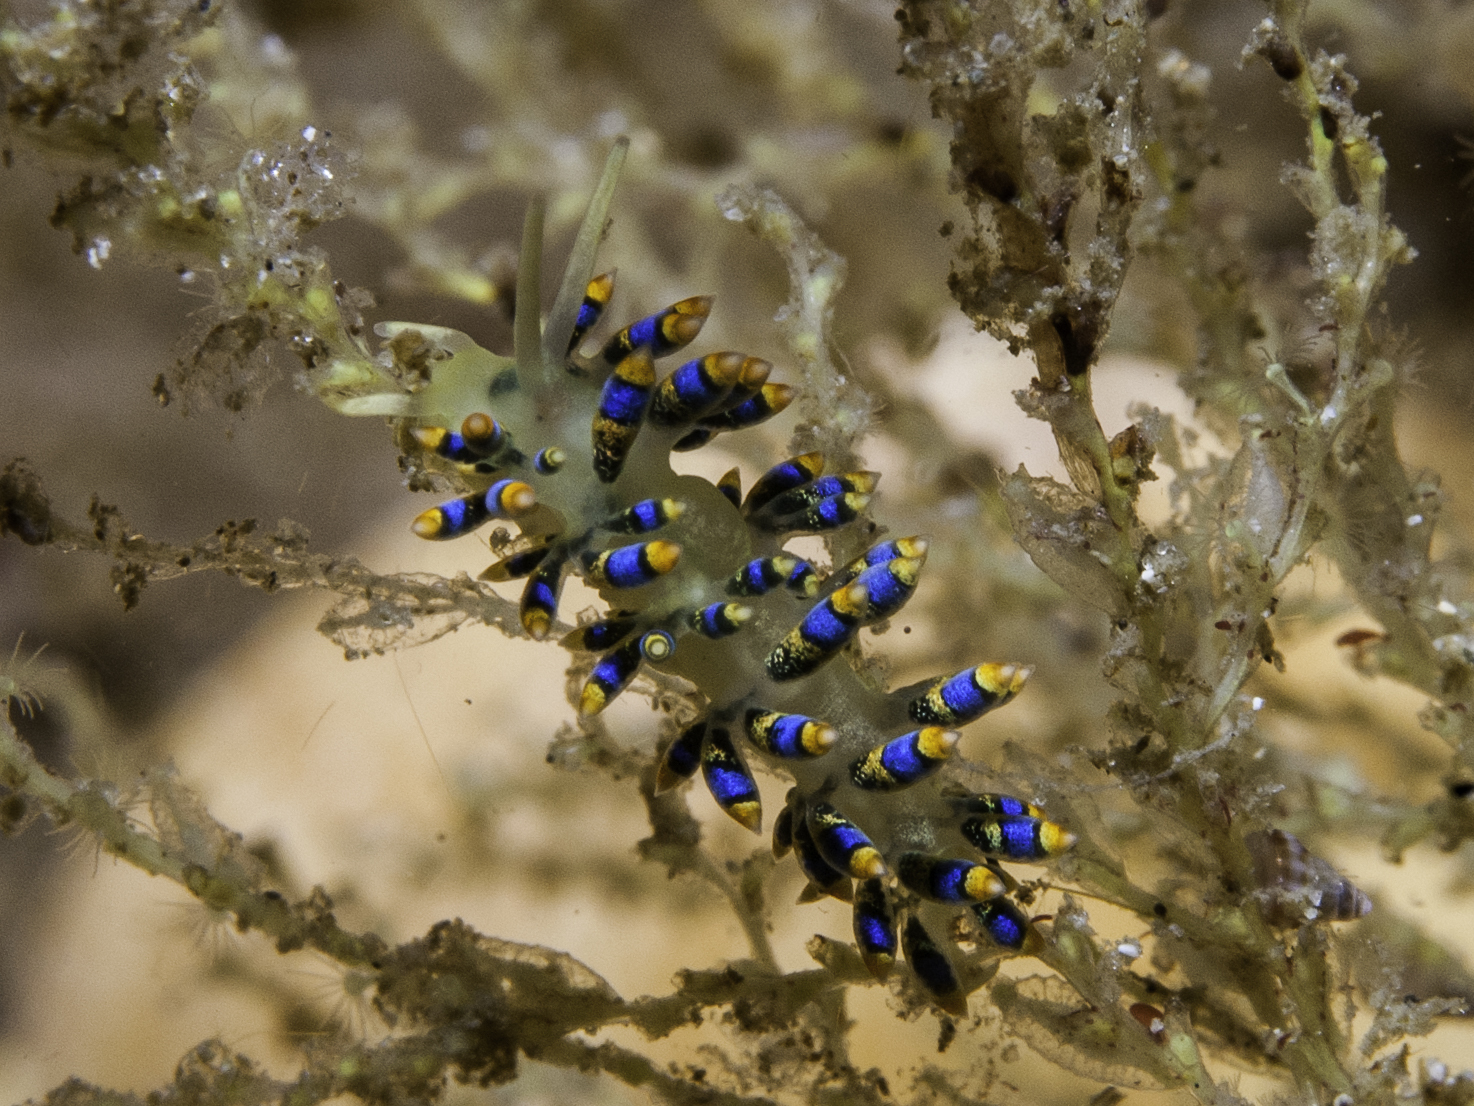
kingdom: Animalia
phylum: Mollusca
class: Gastropoda
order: Nudibranchia
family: Trinchesiidae
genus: Trinchesia
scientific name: Trinchesia cuanensis
